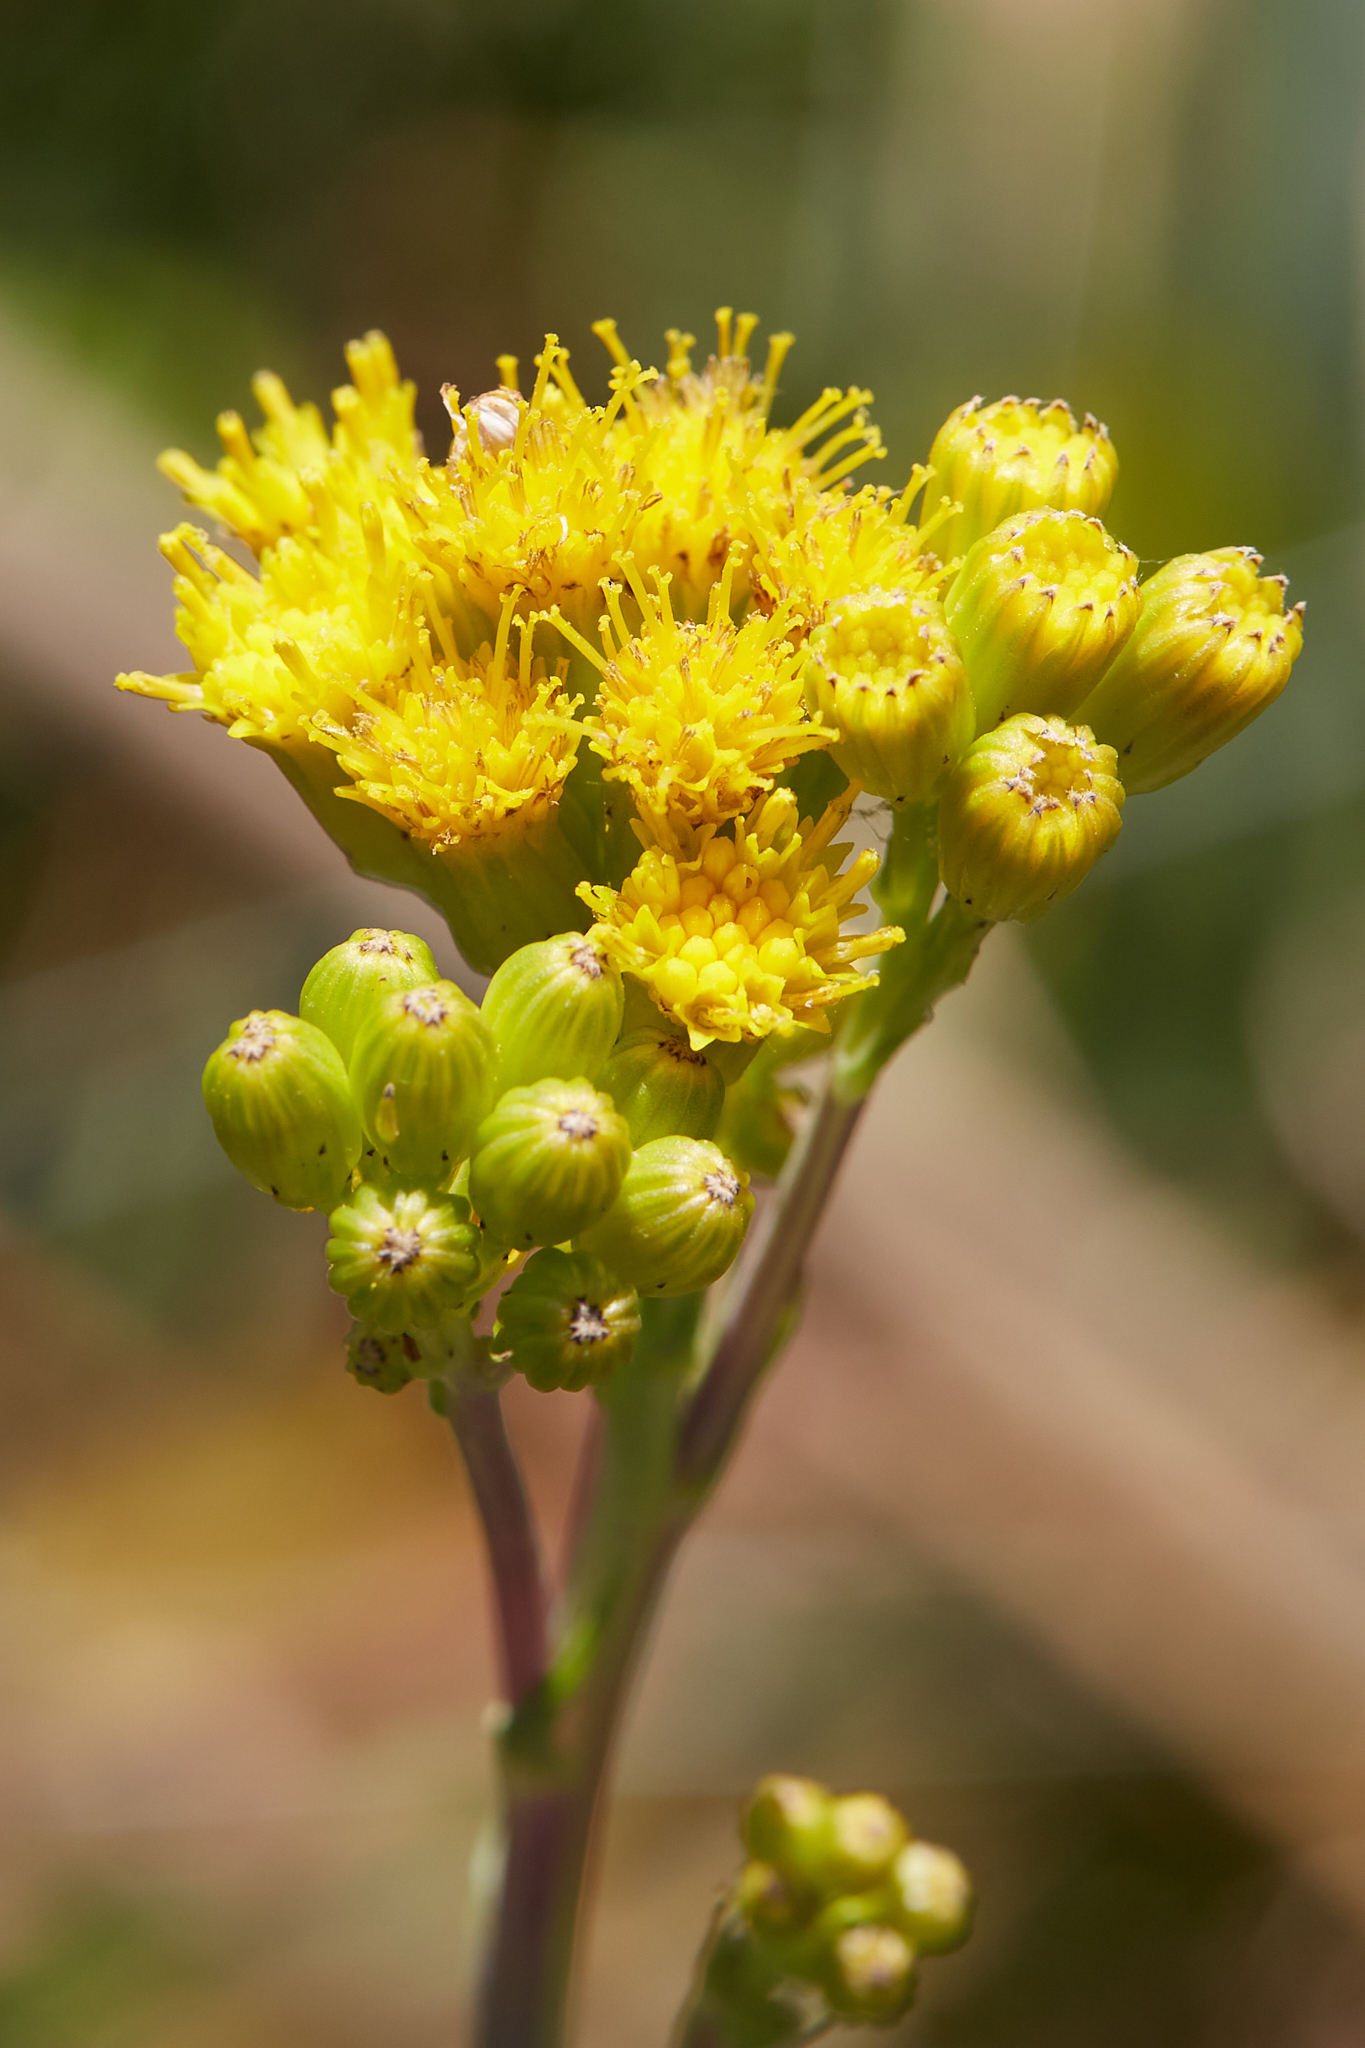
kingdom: Plantae
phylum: Tracheophyta
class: Magnoliopsida
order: Asterales
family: Asteraceae
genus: Senecio
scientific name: Senecio hydrophilus
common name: Water ragwort
